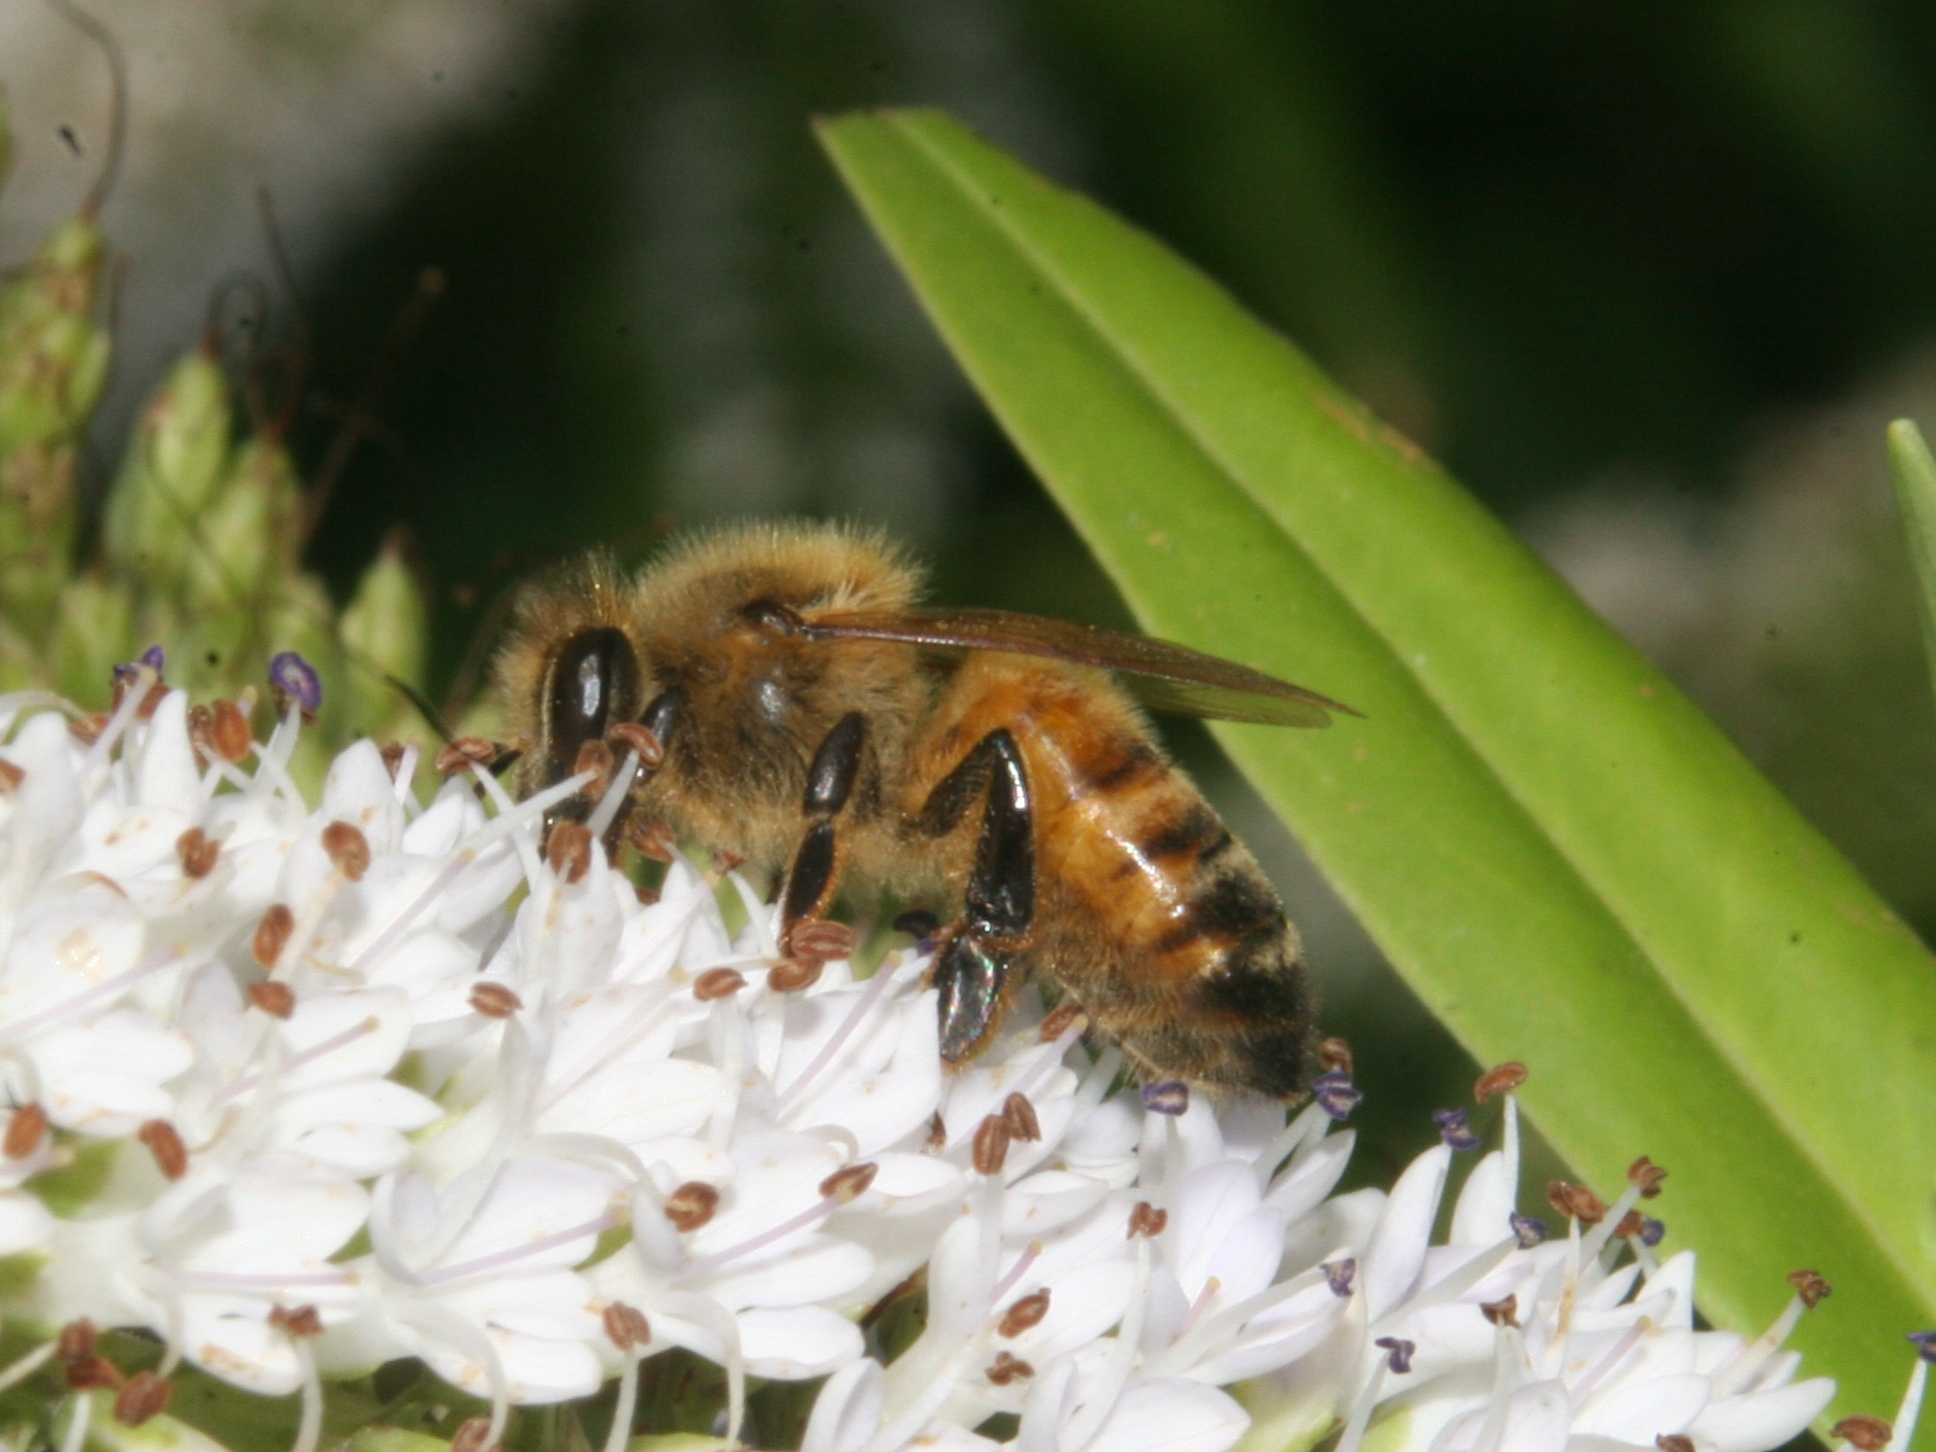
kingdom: Animalia
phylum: Arthropoda
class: Insecta
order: Hymenoptera
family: Apidae
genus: Apis
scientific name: Apis mellifera
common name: Honey bee
